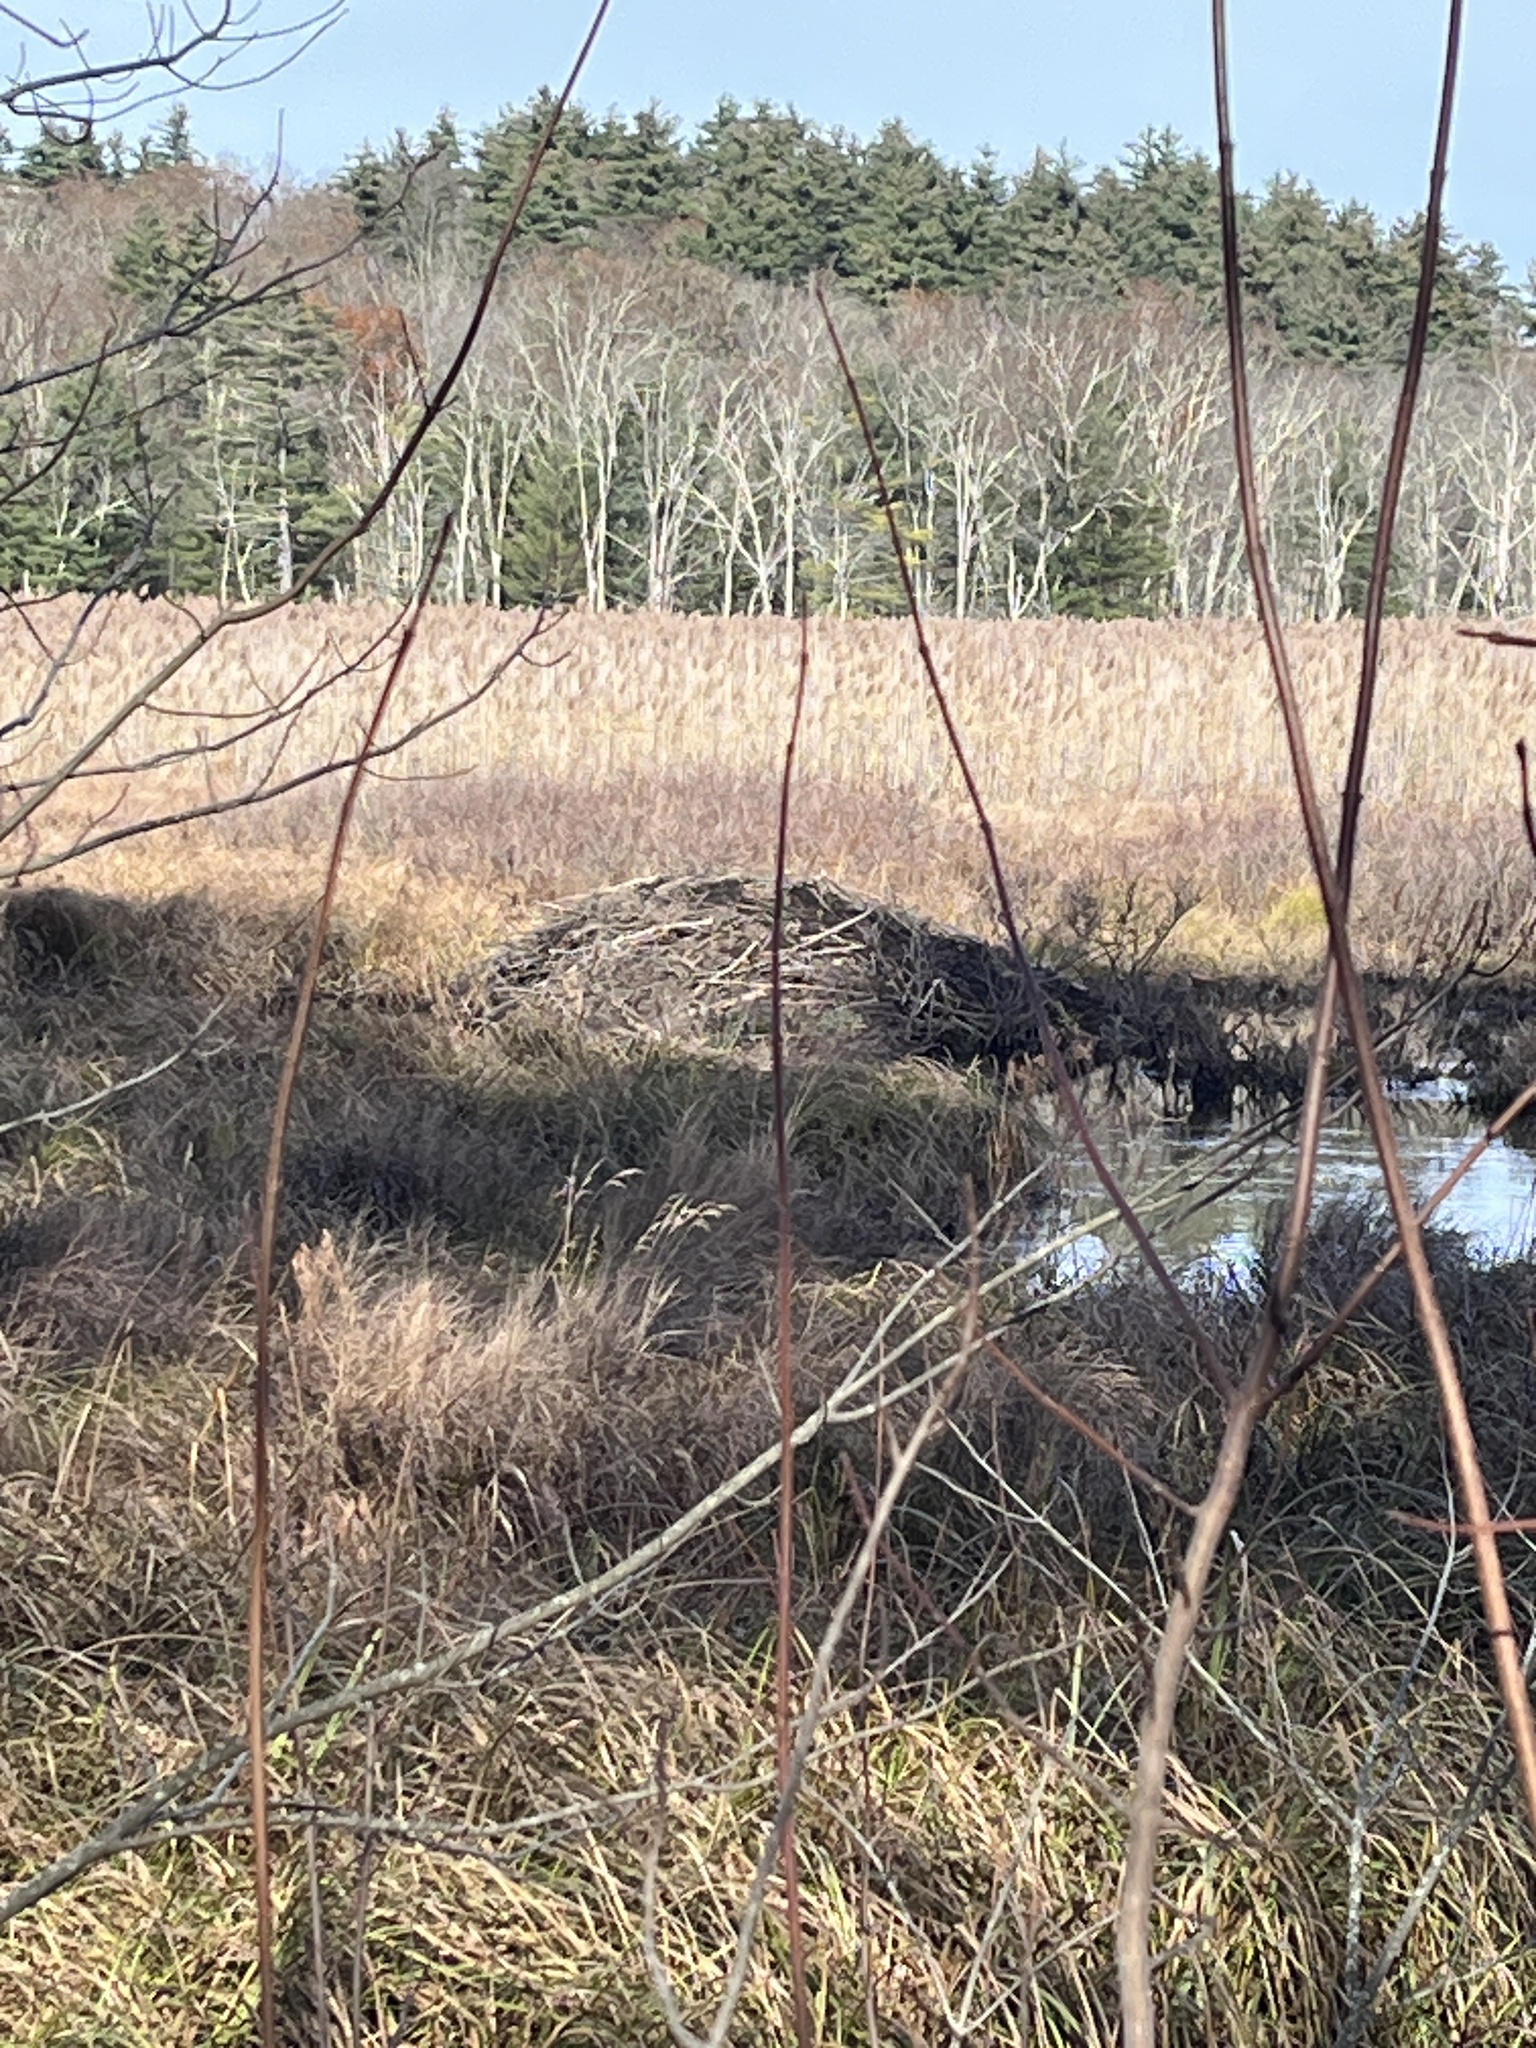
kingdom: Animalia
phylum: Chordata
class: Mammalia
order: Rodentia
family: Castoridae
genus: Castor
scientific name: Castor canadensis
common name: American beaver
